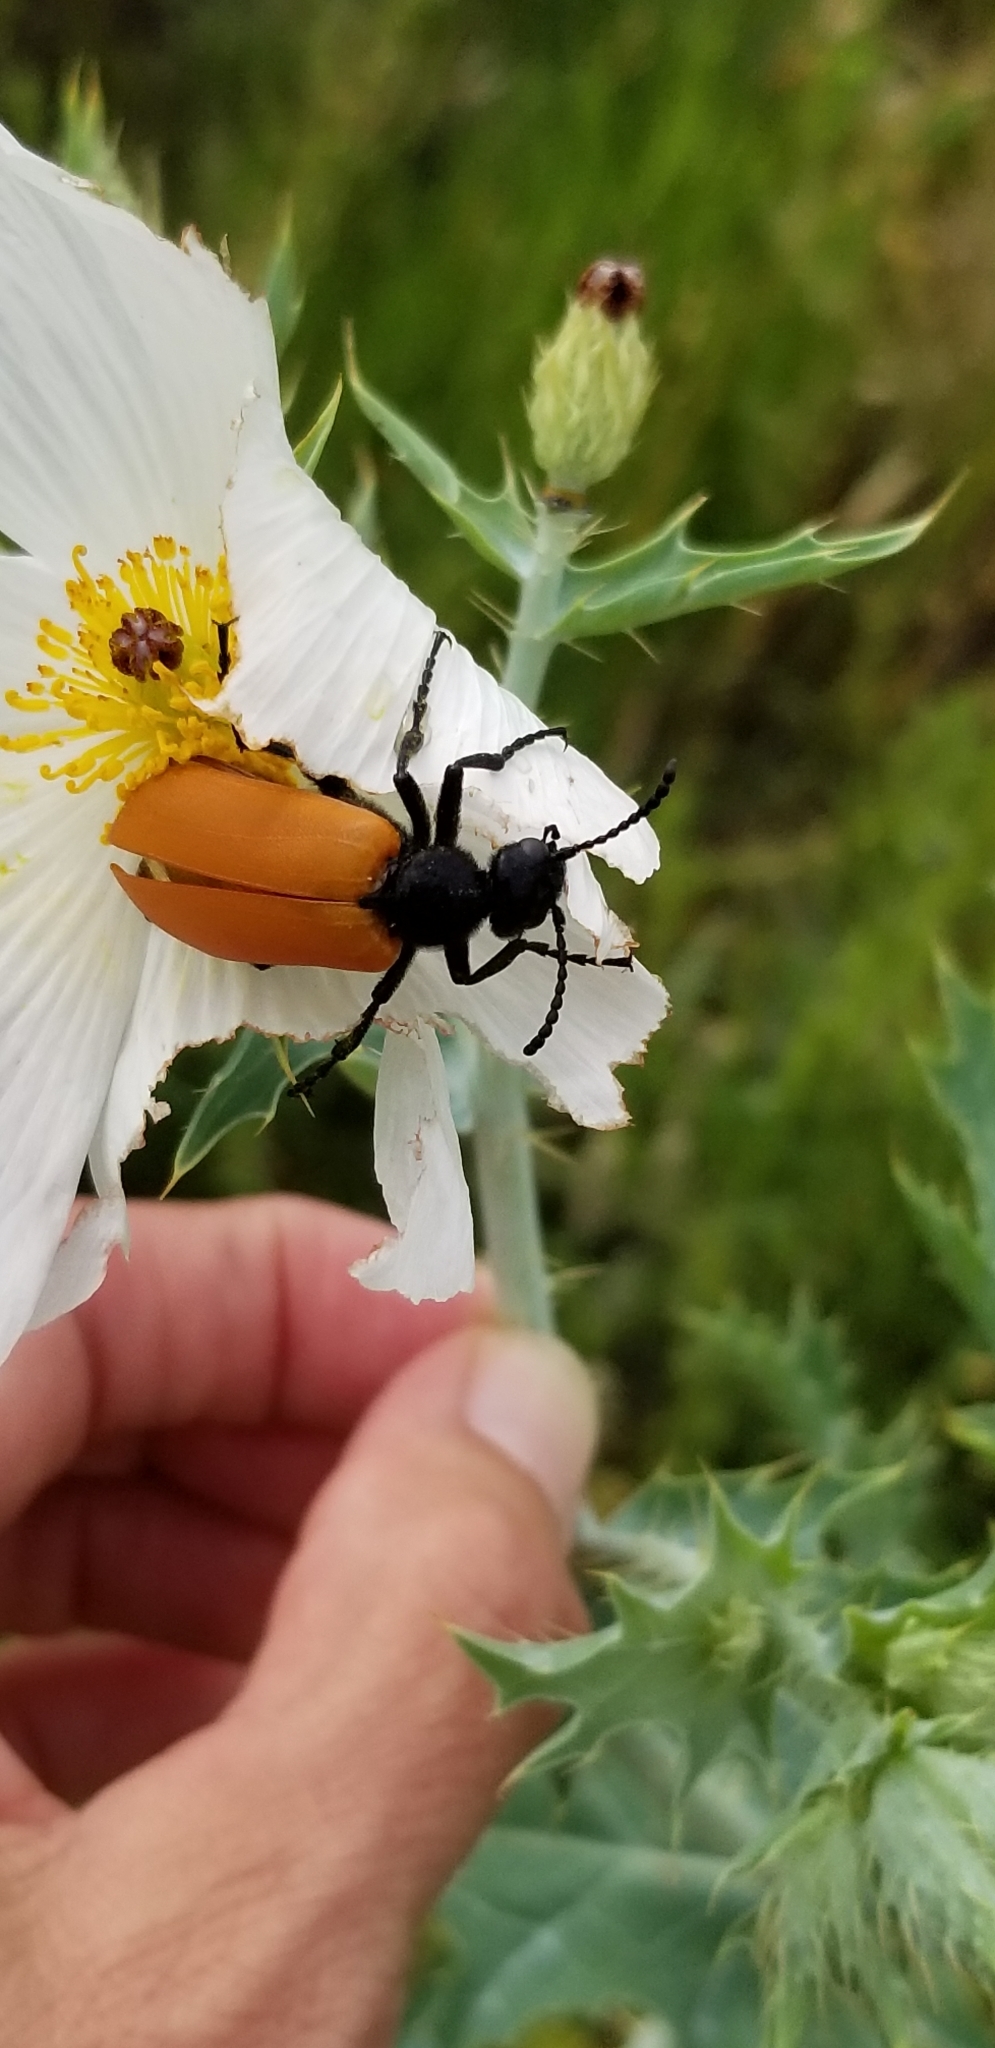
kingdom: Animalia
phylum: Arthropoda
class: Insecta
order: Coleoptera
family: Meloidae
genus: Lytta
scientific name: Lytta fulvipennis
